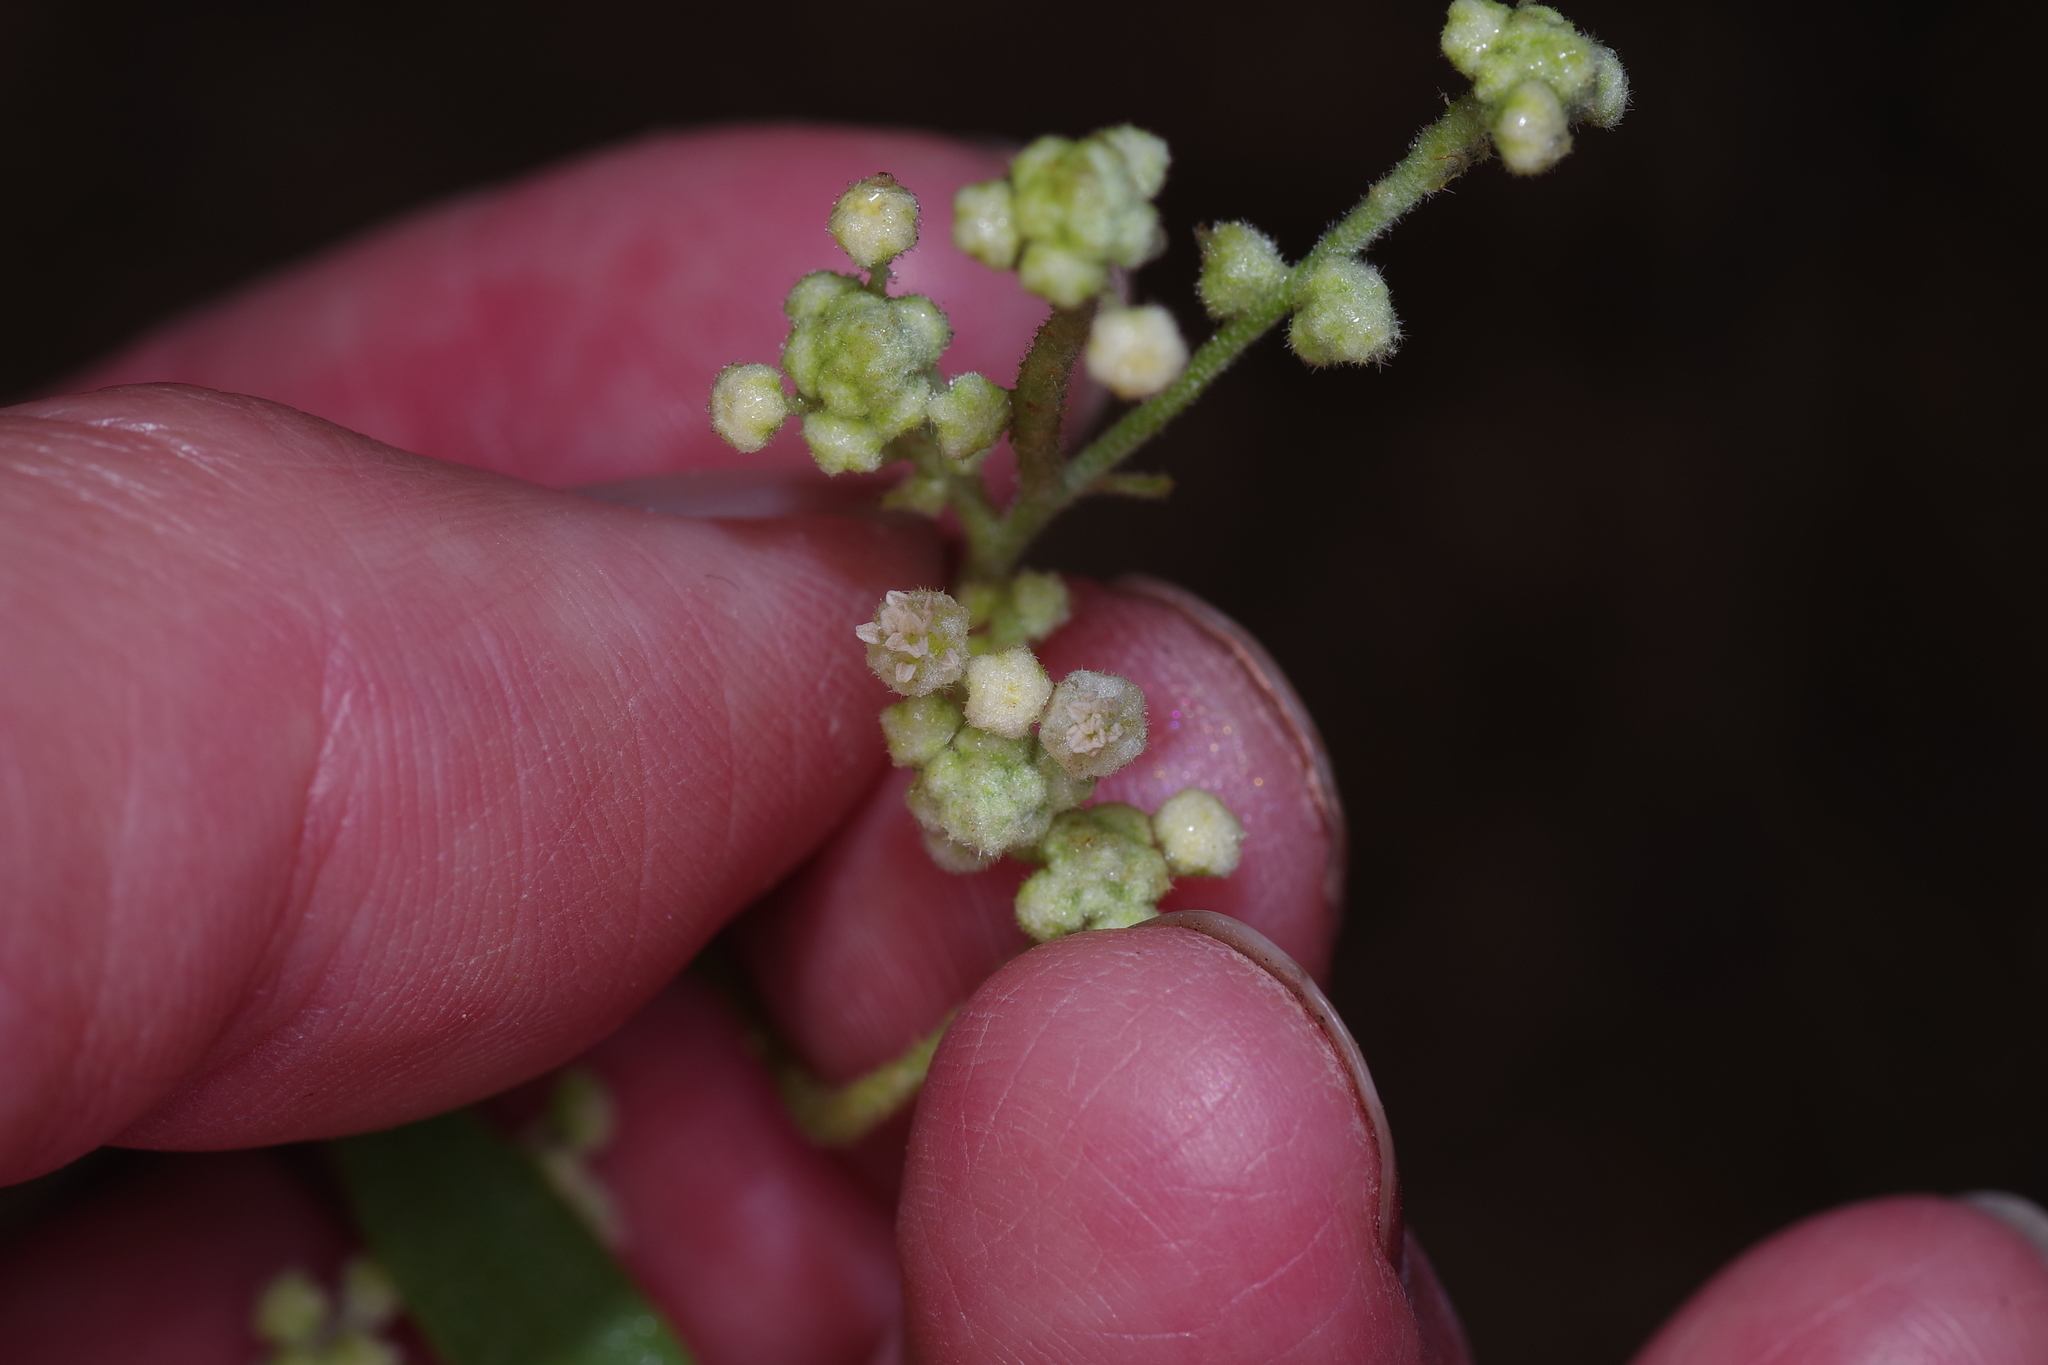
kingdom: Plantae
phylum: Tracheophyta
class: Magnoliopsida
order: Malpighiales
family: Euphorbiaceae
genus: Croton
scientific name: Croton texensis
